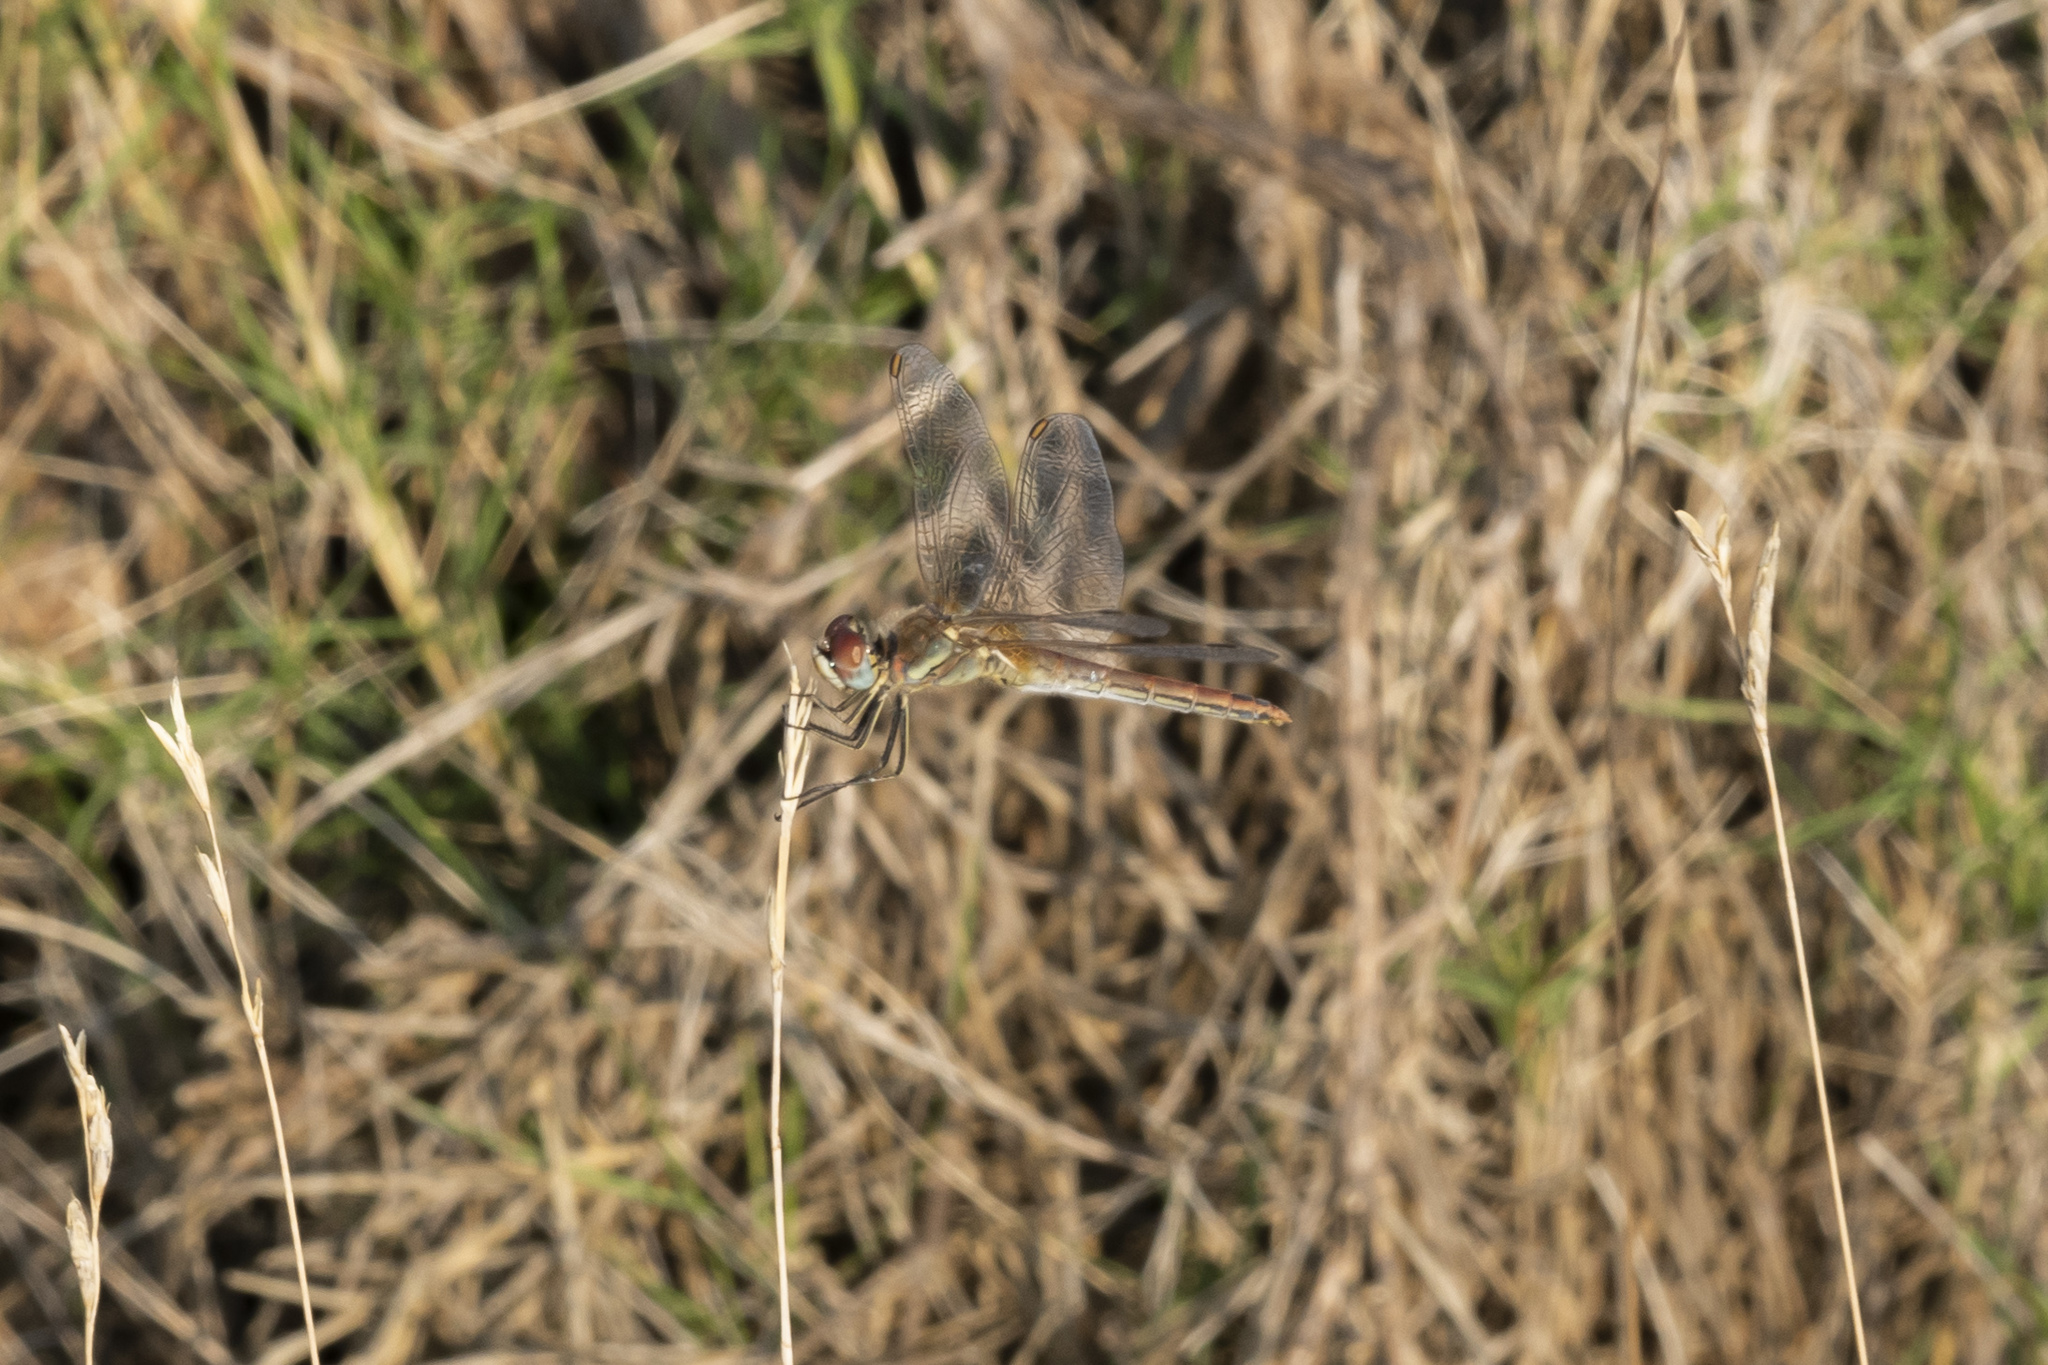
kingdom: Animalia
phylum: Arthropoda
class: Insecta
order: Odonata
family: Libellulidae
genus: Sympetrum
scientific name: Sympetrum fonscolombii
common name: Red-veined darter
